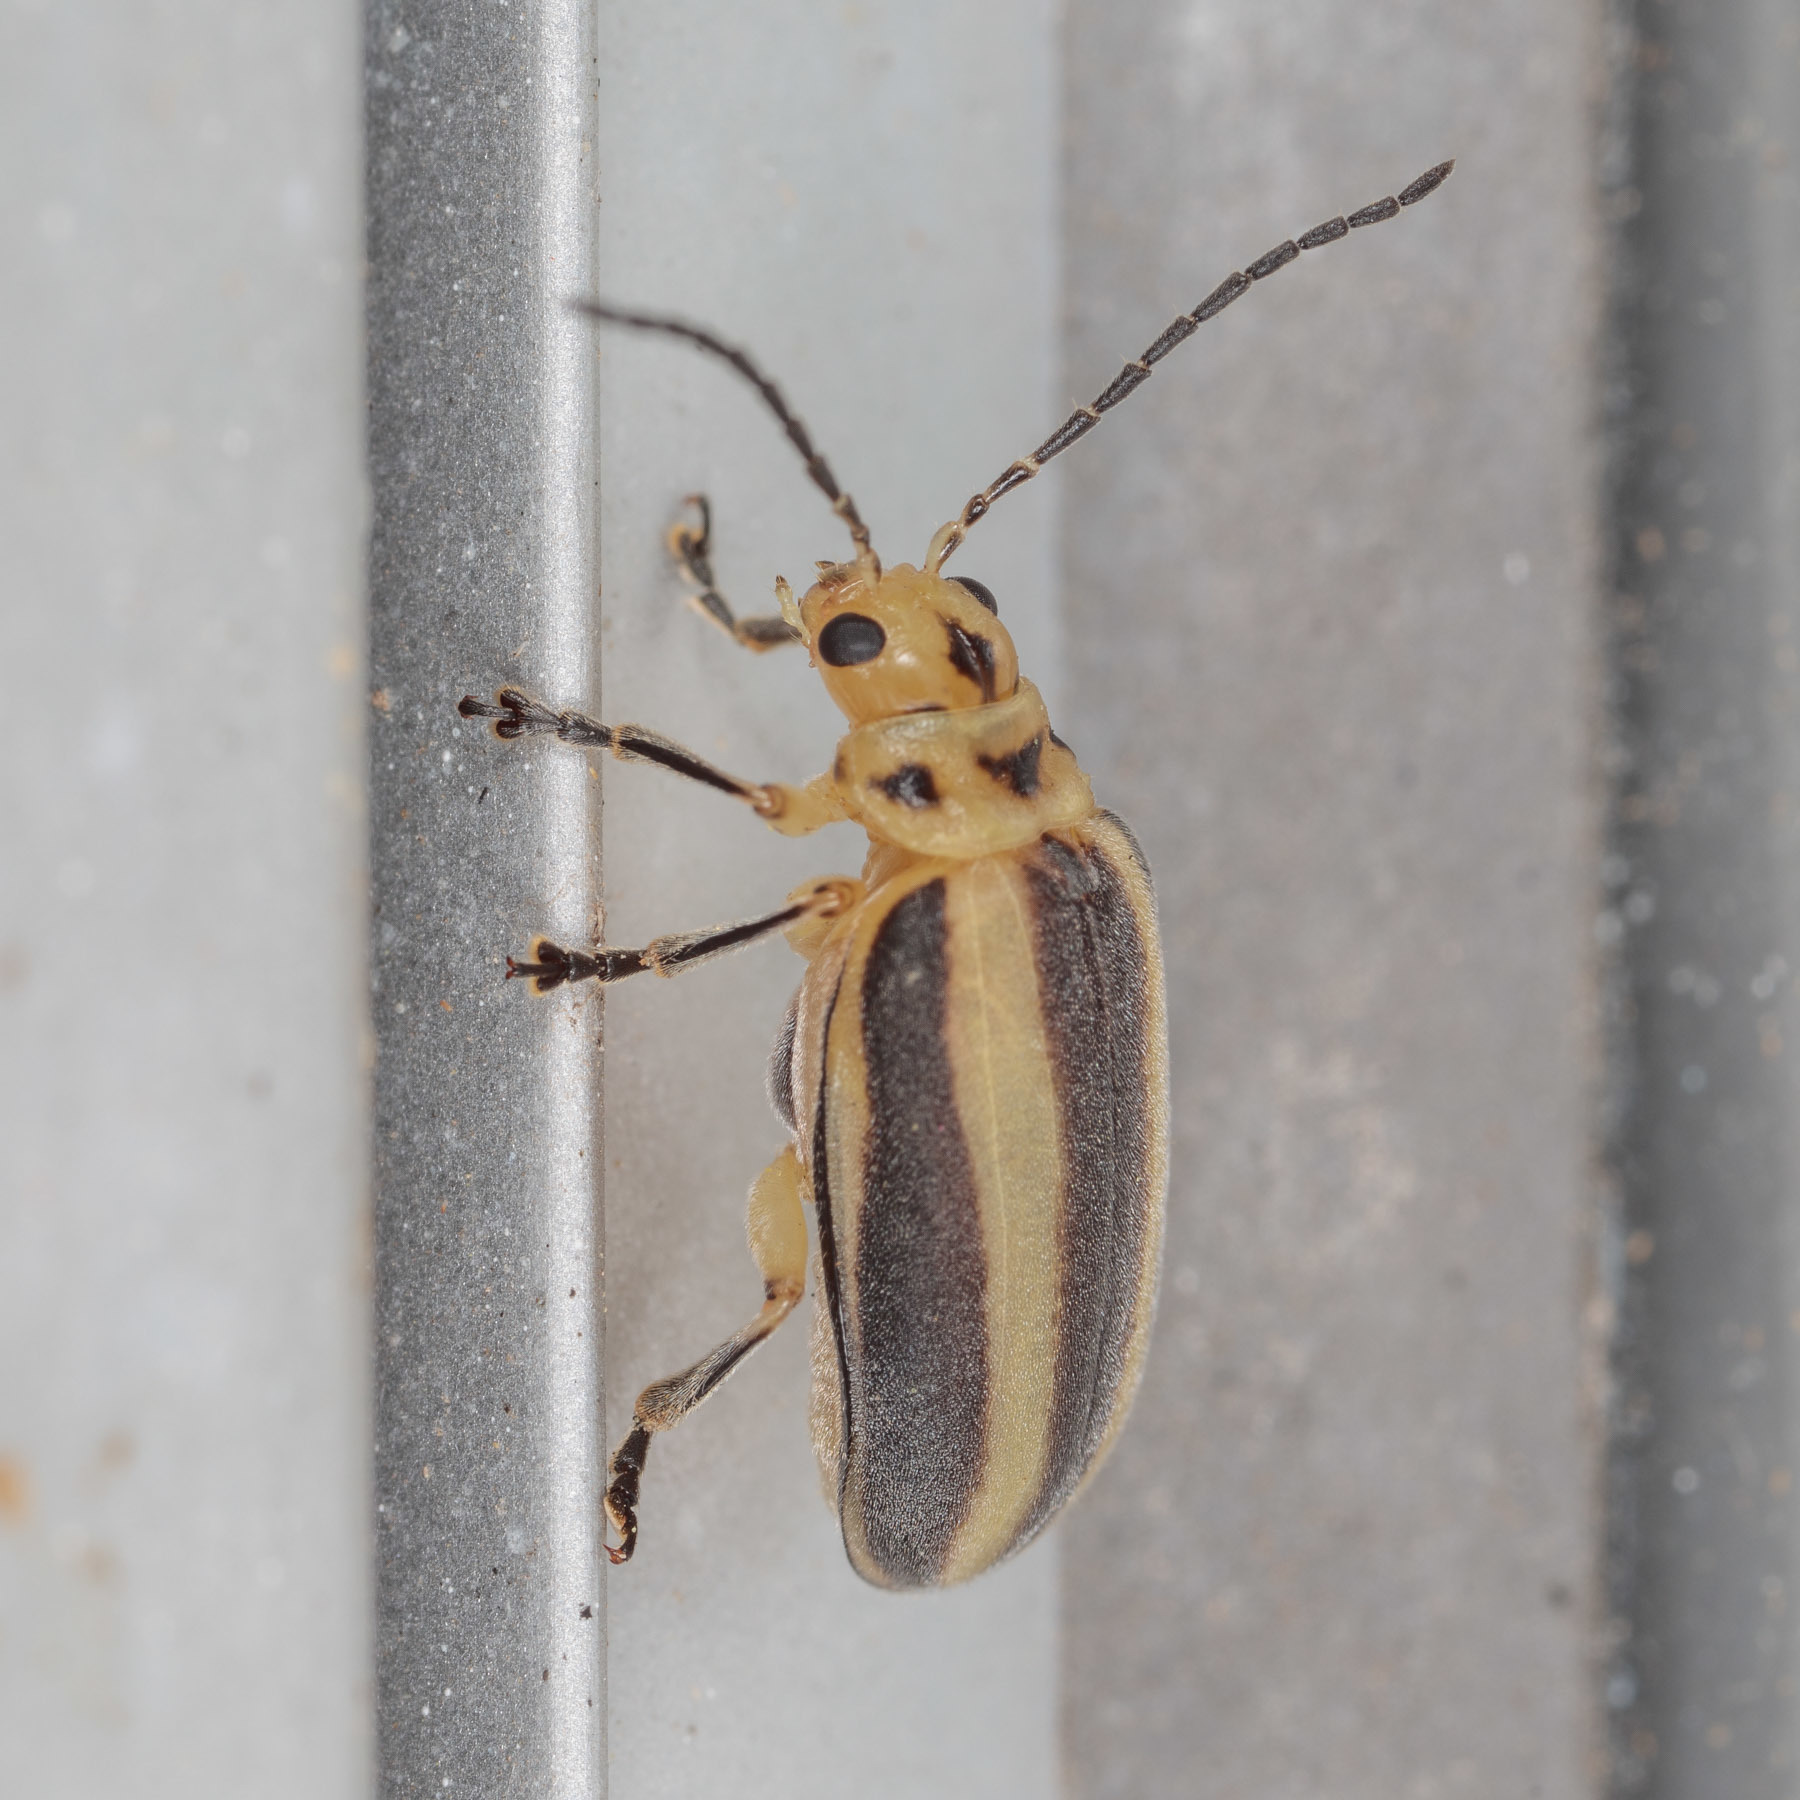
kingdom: Animalia
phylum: Arthropoda
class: Insecta
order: Coleoptera
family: Chrysomelidae
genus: Derospidea
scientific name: Derospidea brevicollis
